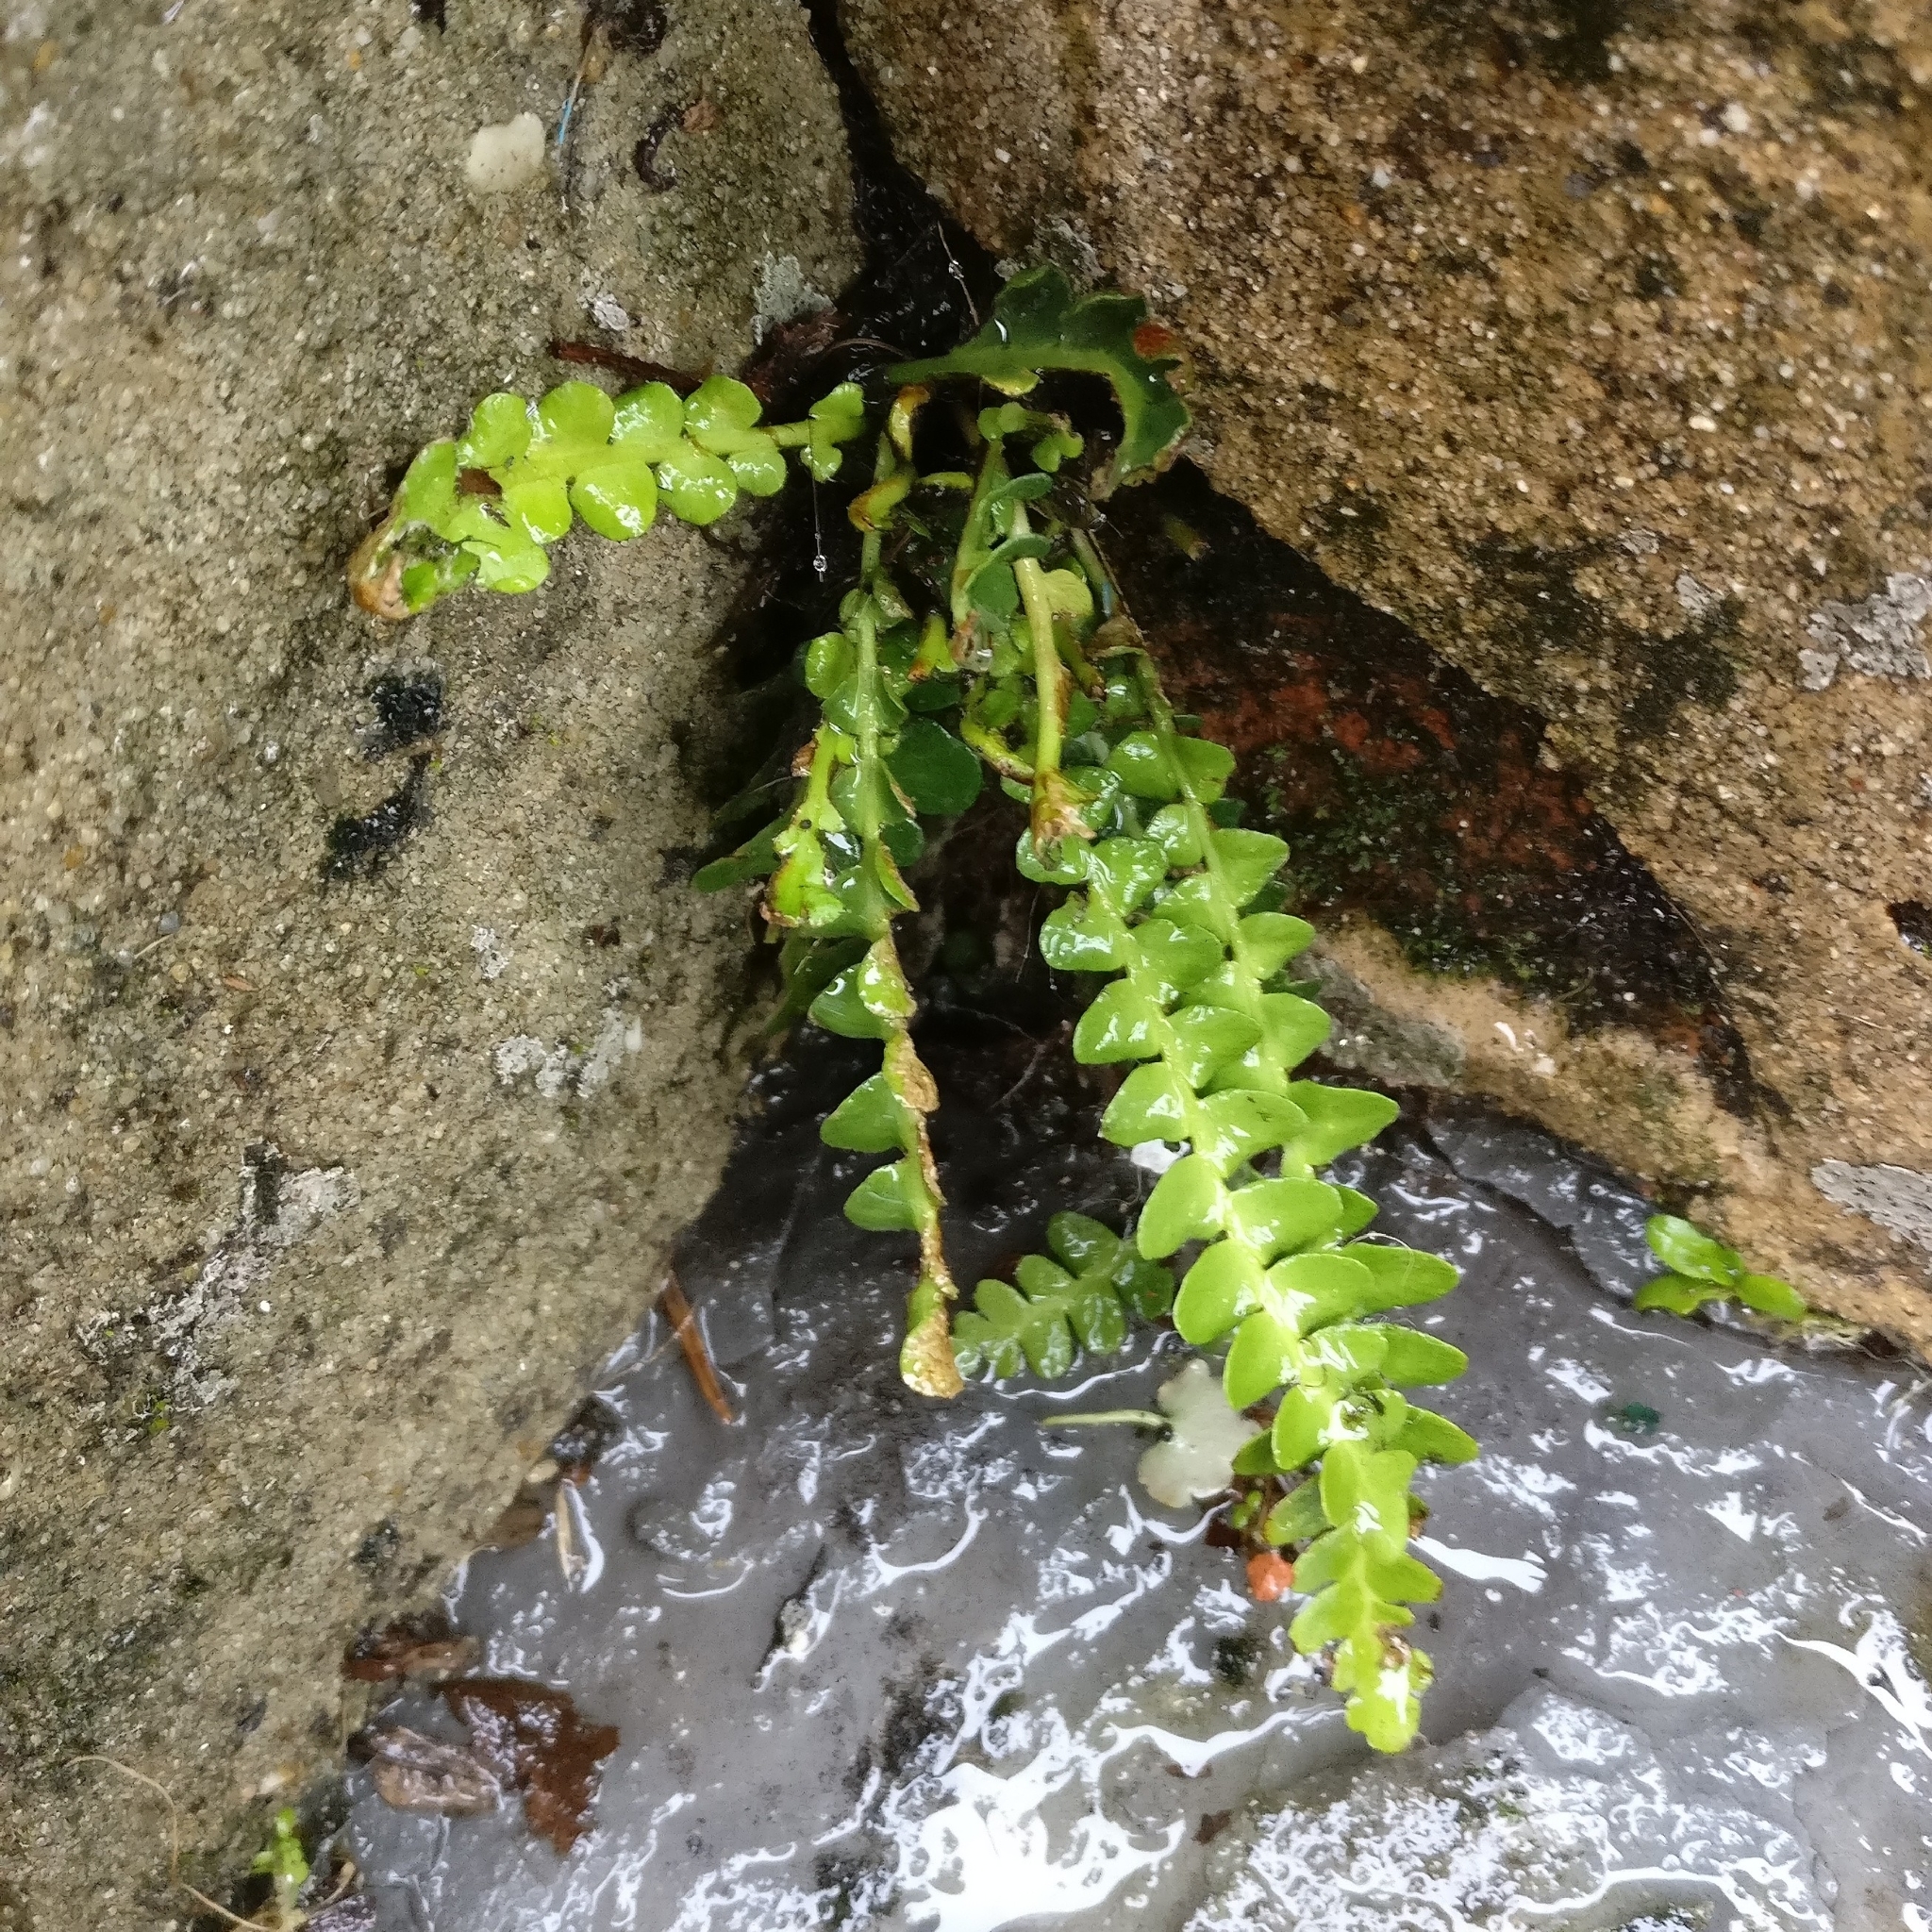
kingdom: Plantae
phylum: Tracheophyta
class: Polypodiopsida
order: Polypodiales
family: Aspleniaceae
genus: Asplenium
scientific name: Asplenium ceterach
